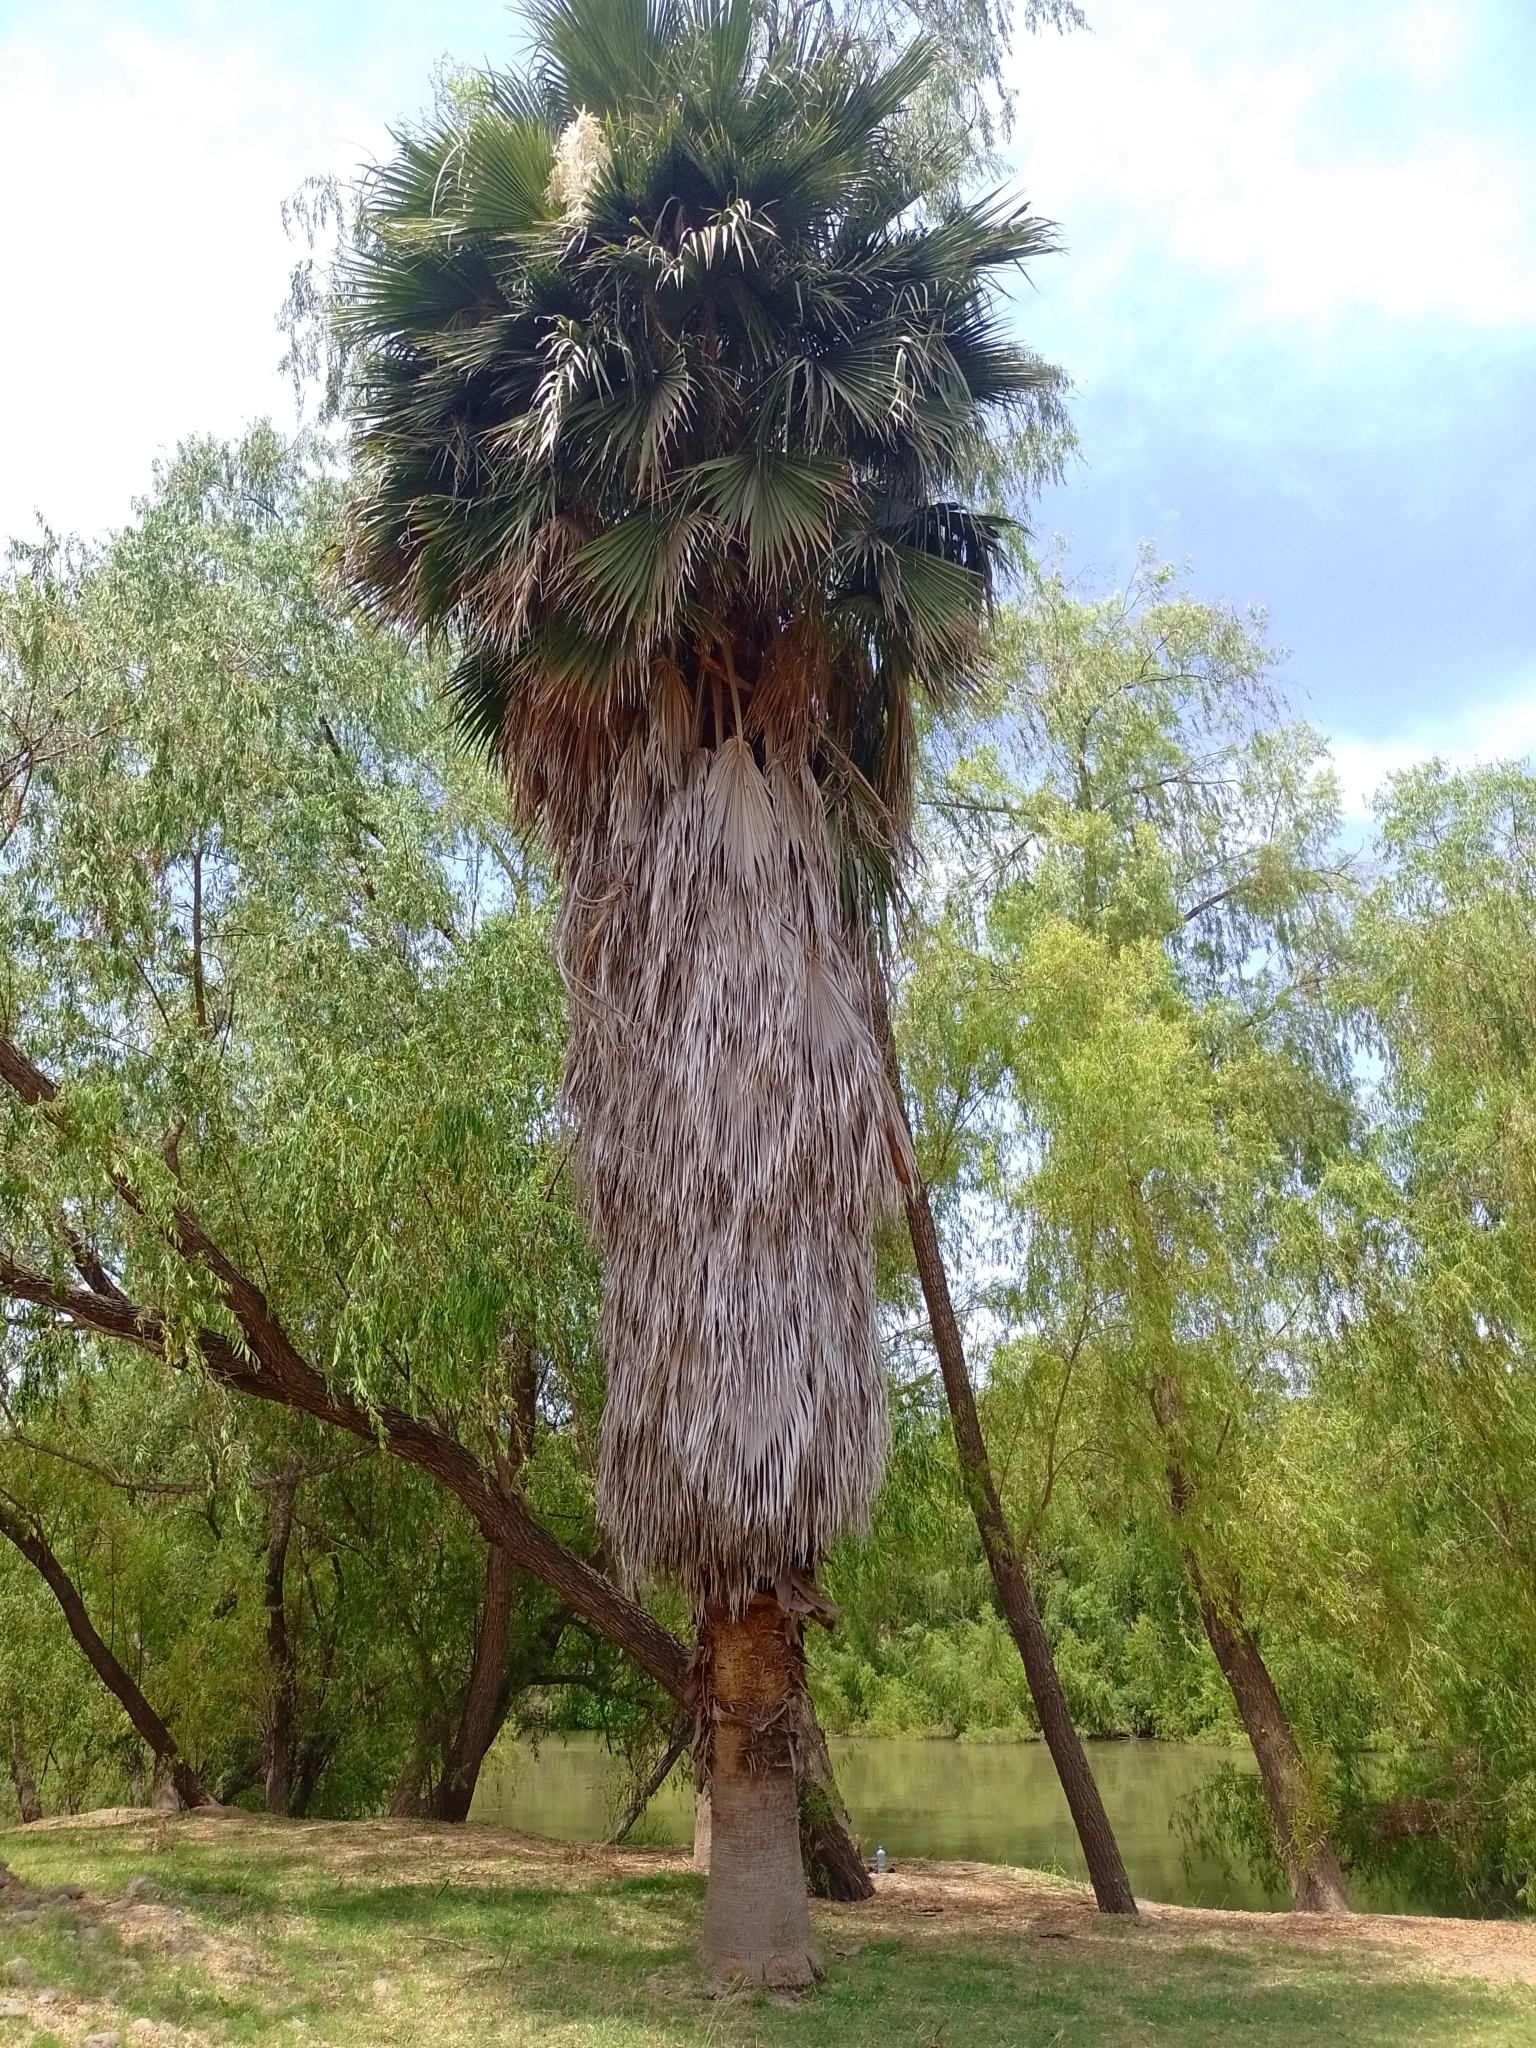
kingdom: Plantae
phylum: Tracheophyta
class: Liliopsida
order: Arecales
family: Arecaceae
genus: Washingtonia
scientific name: Washingtonia robusta
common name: Mexican fan palm
